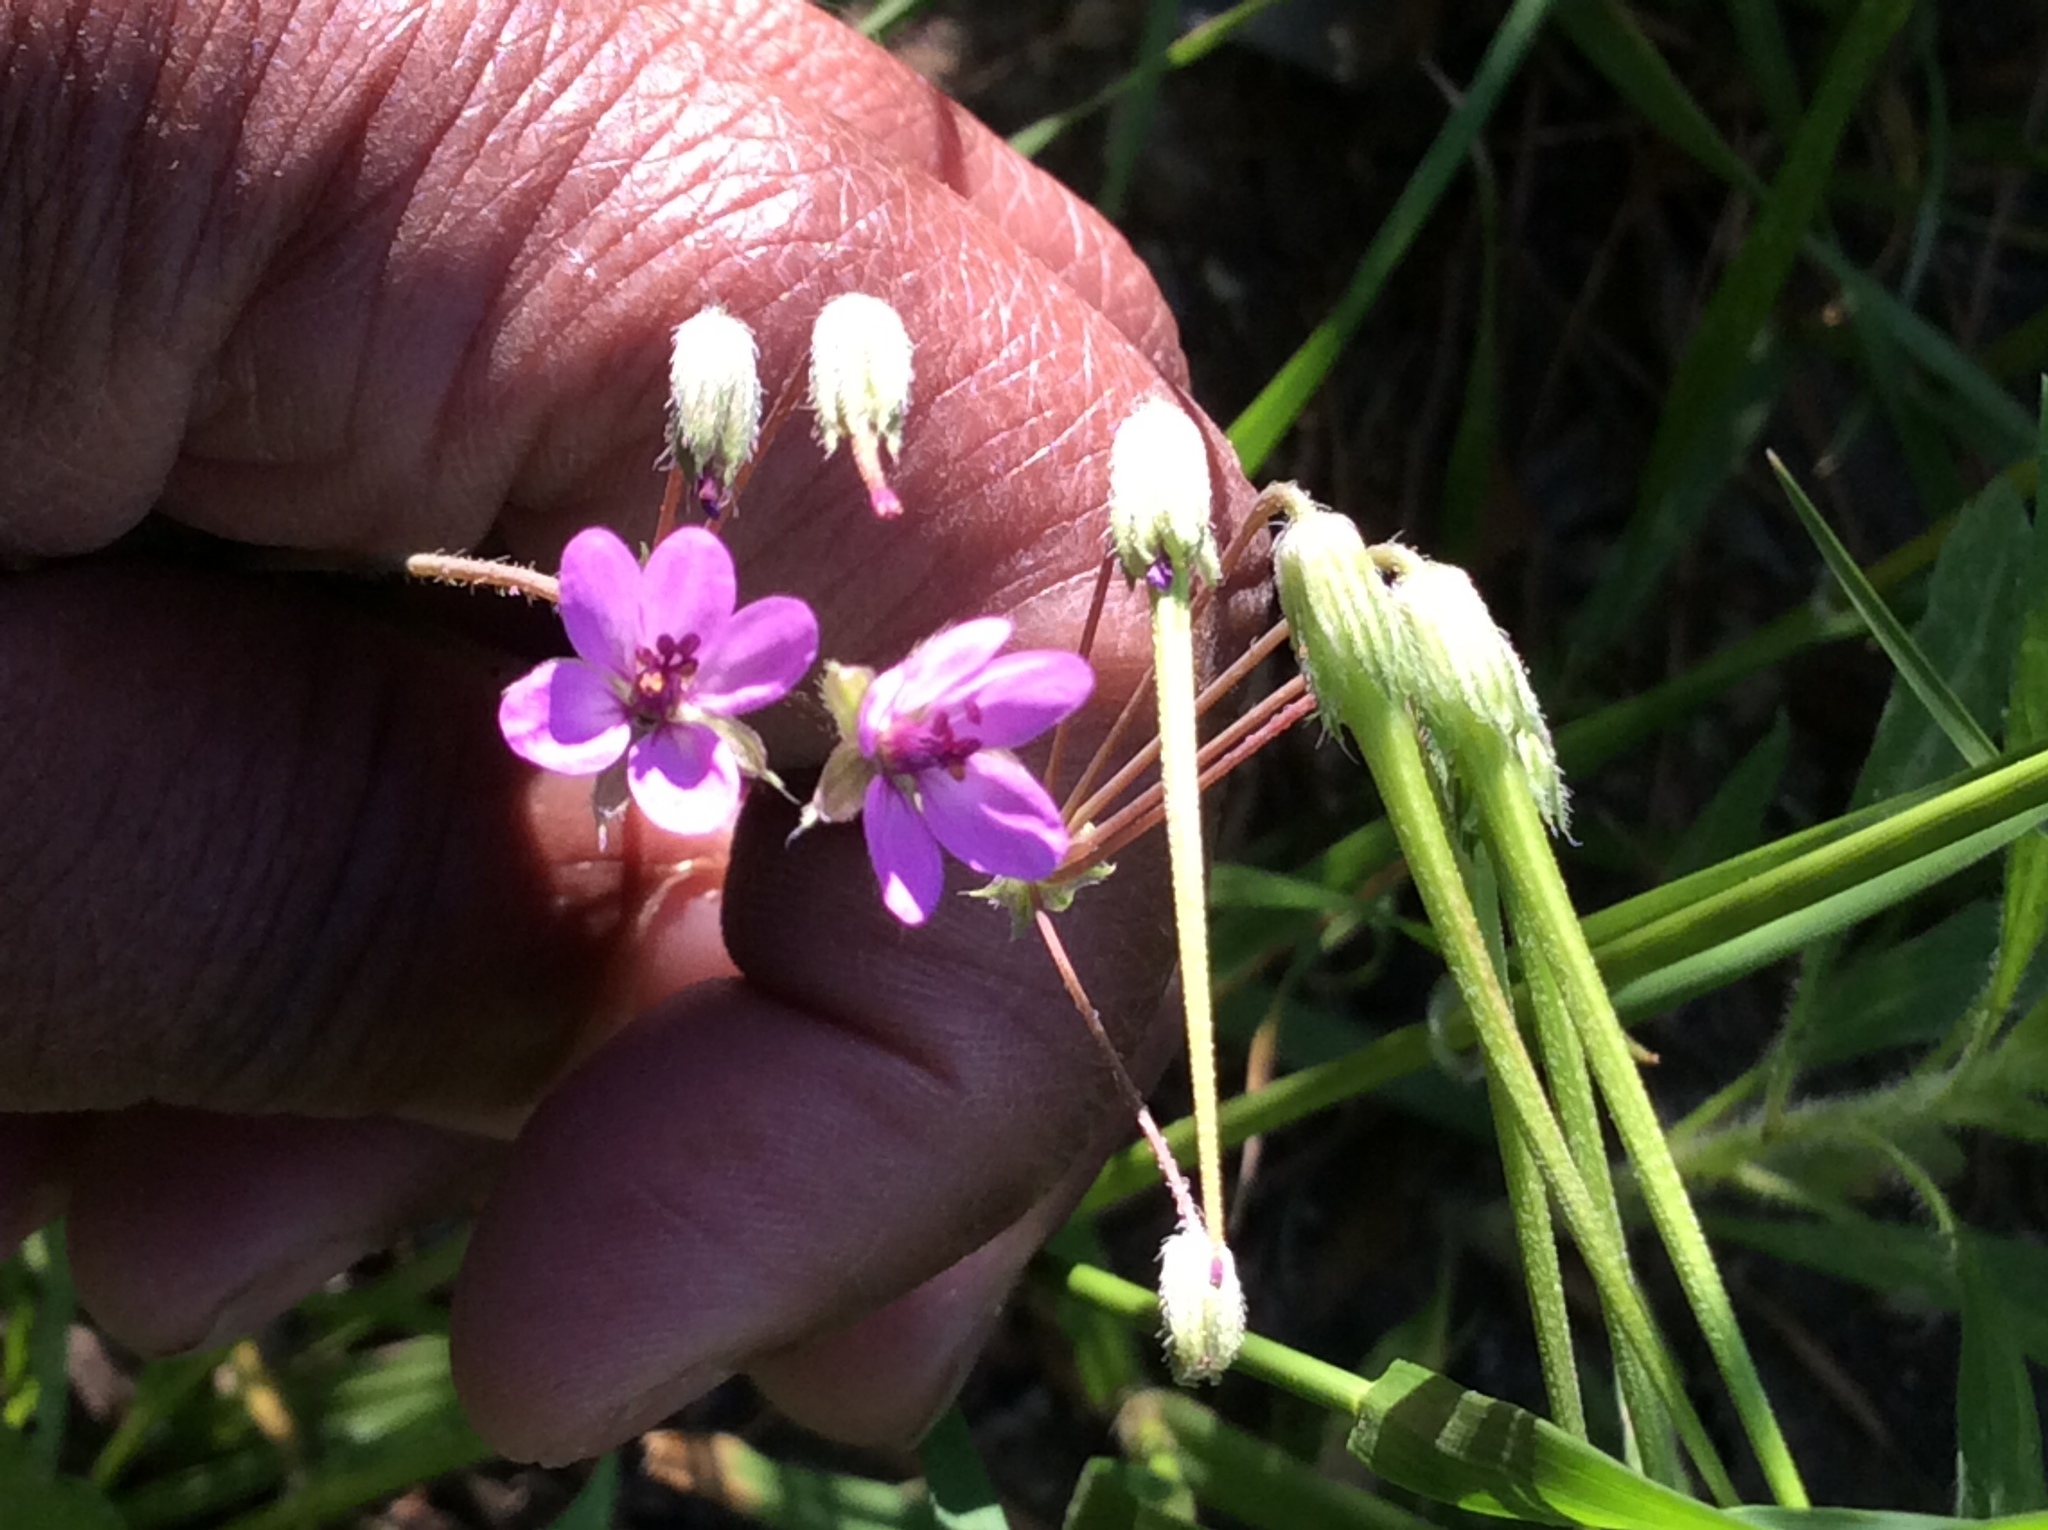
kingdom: Plantae
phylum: Tracheophyta
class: Magnoliopsida
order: Geraniales
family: Geraniaceae
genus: Erodium
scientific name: Erodium cicutarium
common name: Common stork's-bill
